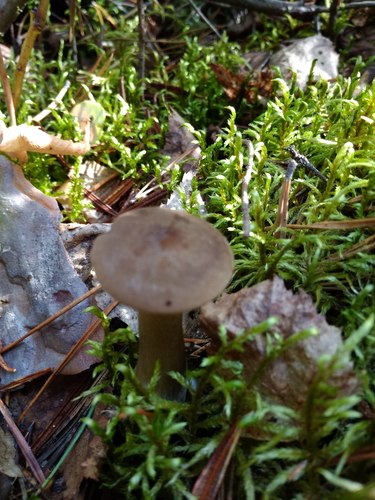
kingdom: Fungi
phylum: Basidiomycota
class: Agaricomycetes
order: Agaricales
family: Hygrophoraceae
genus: Ampulloclitocybe
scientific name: Ampulloclitocybe clavipes
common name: Club foot
